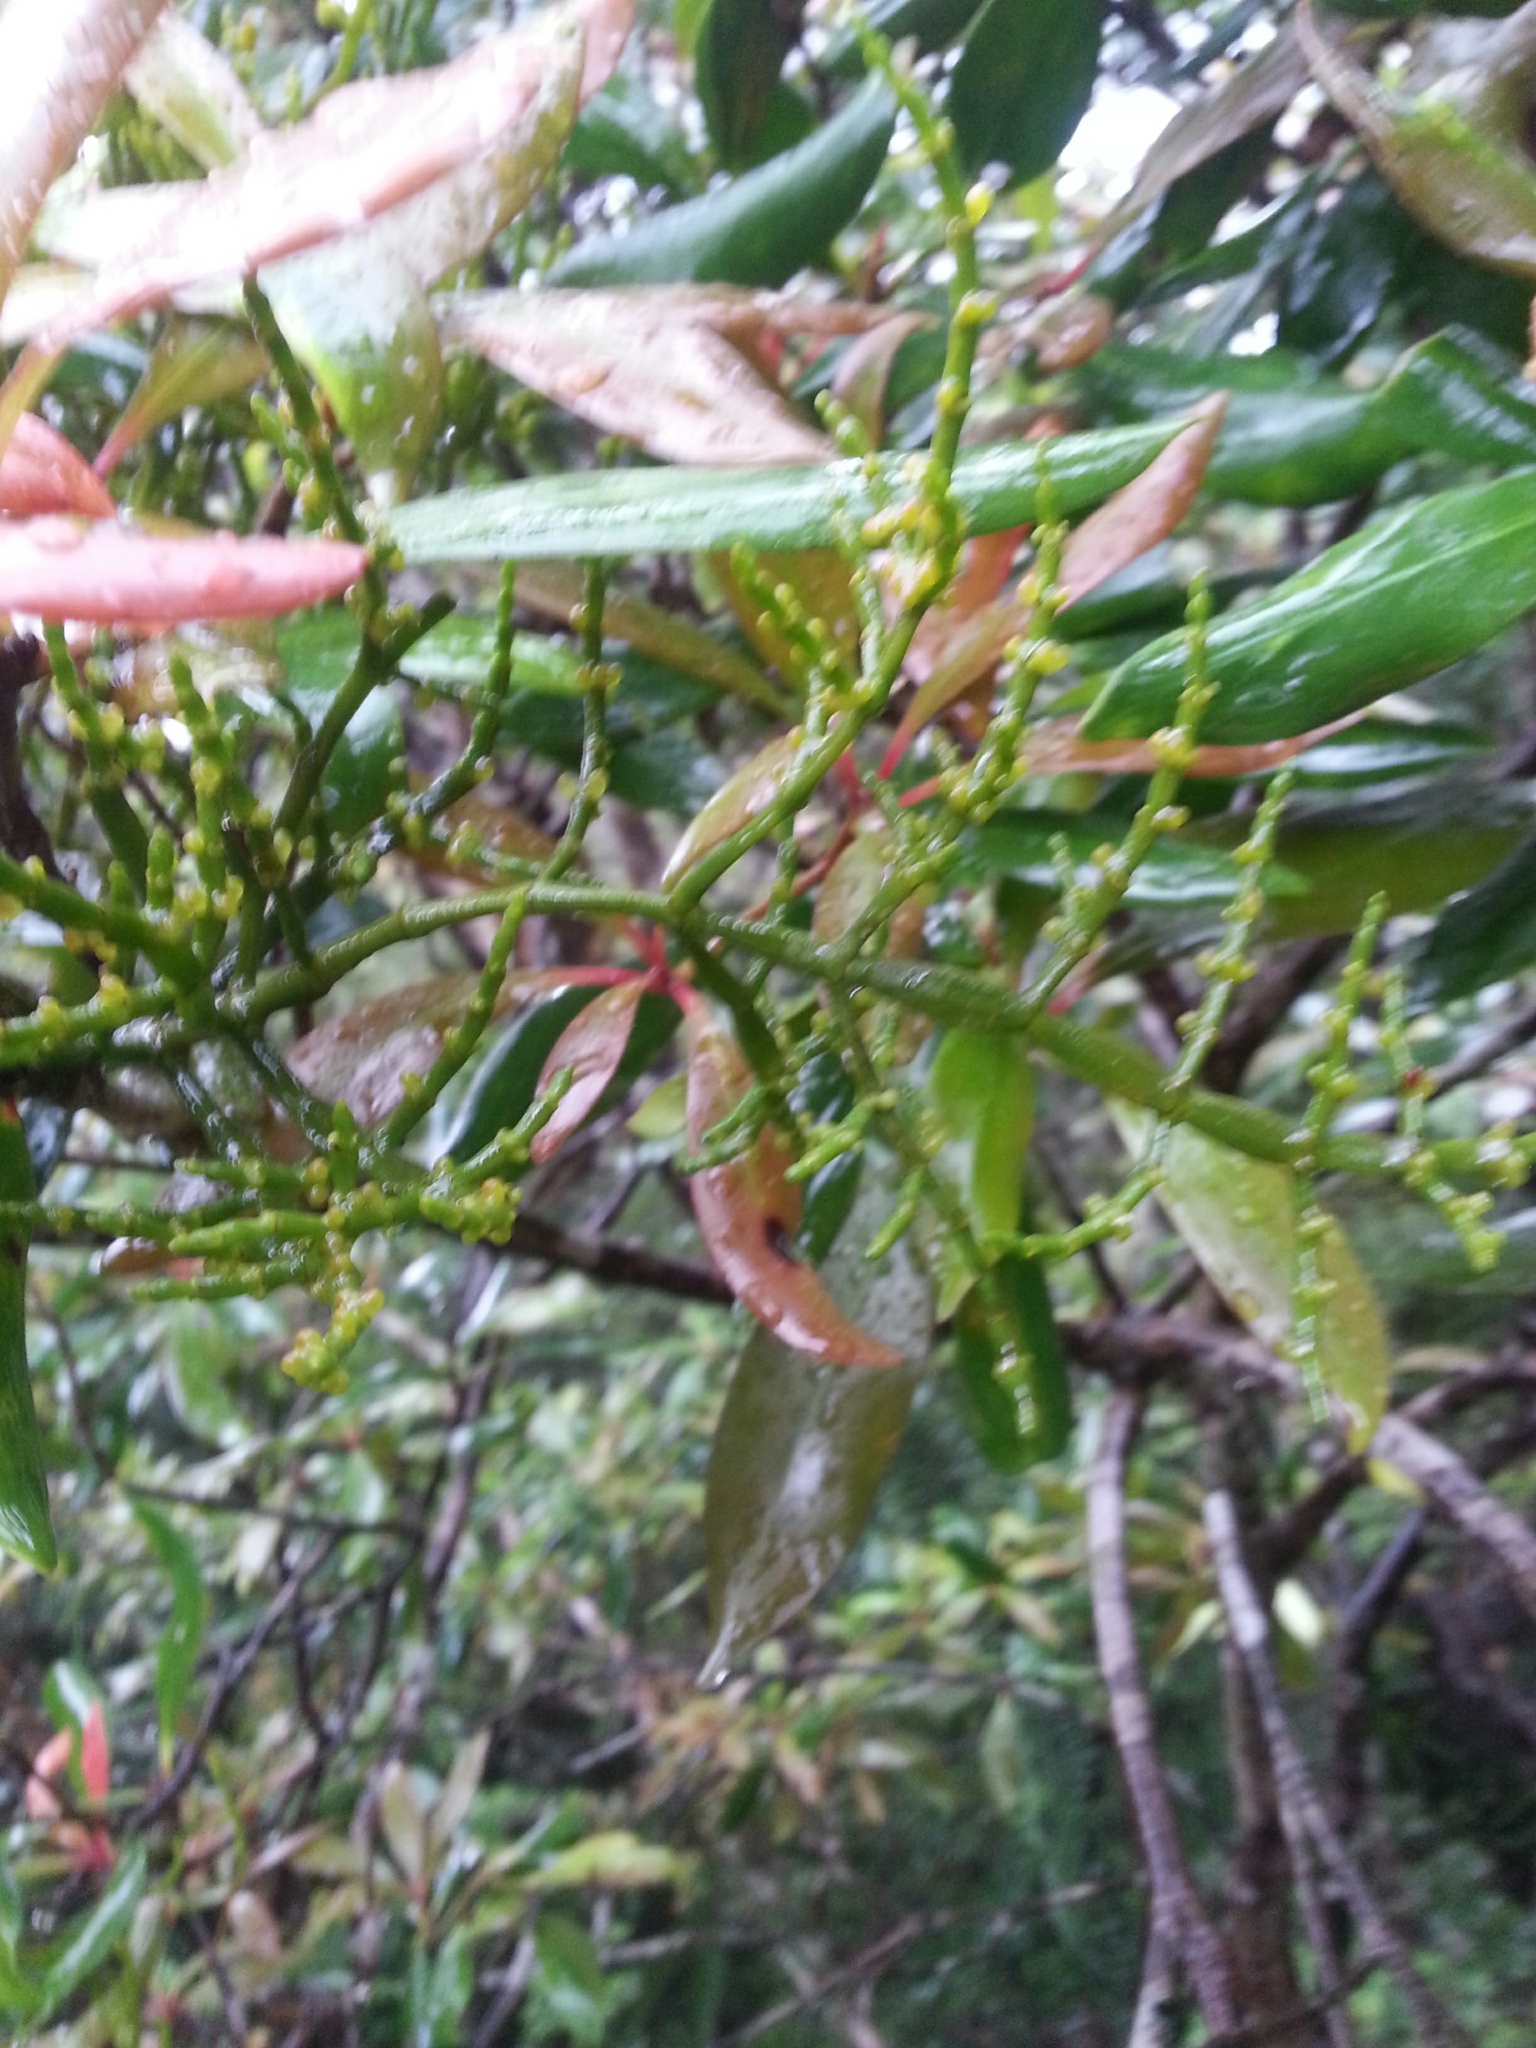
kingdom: Plantae
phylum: Tracheophyta
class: Magnoliopsida
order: Santalales
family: Viscaceae
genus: Korthalsella
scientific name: Korthalsella japonica
